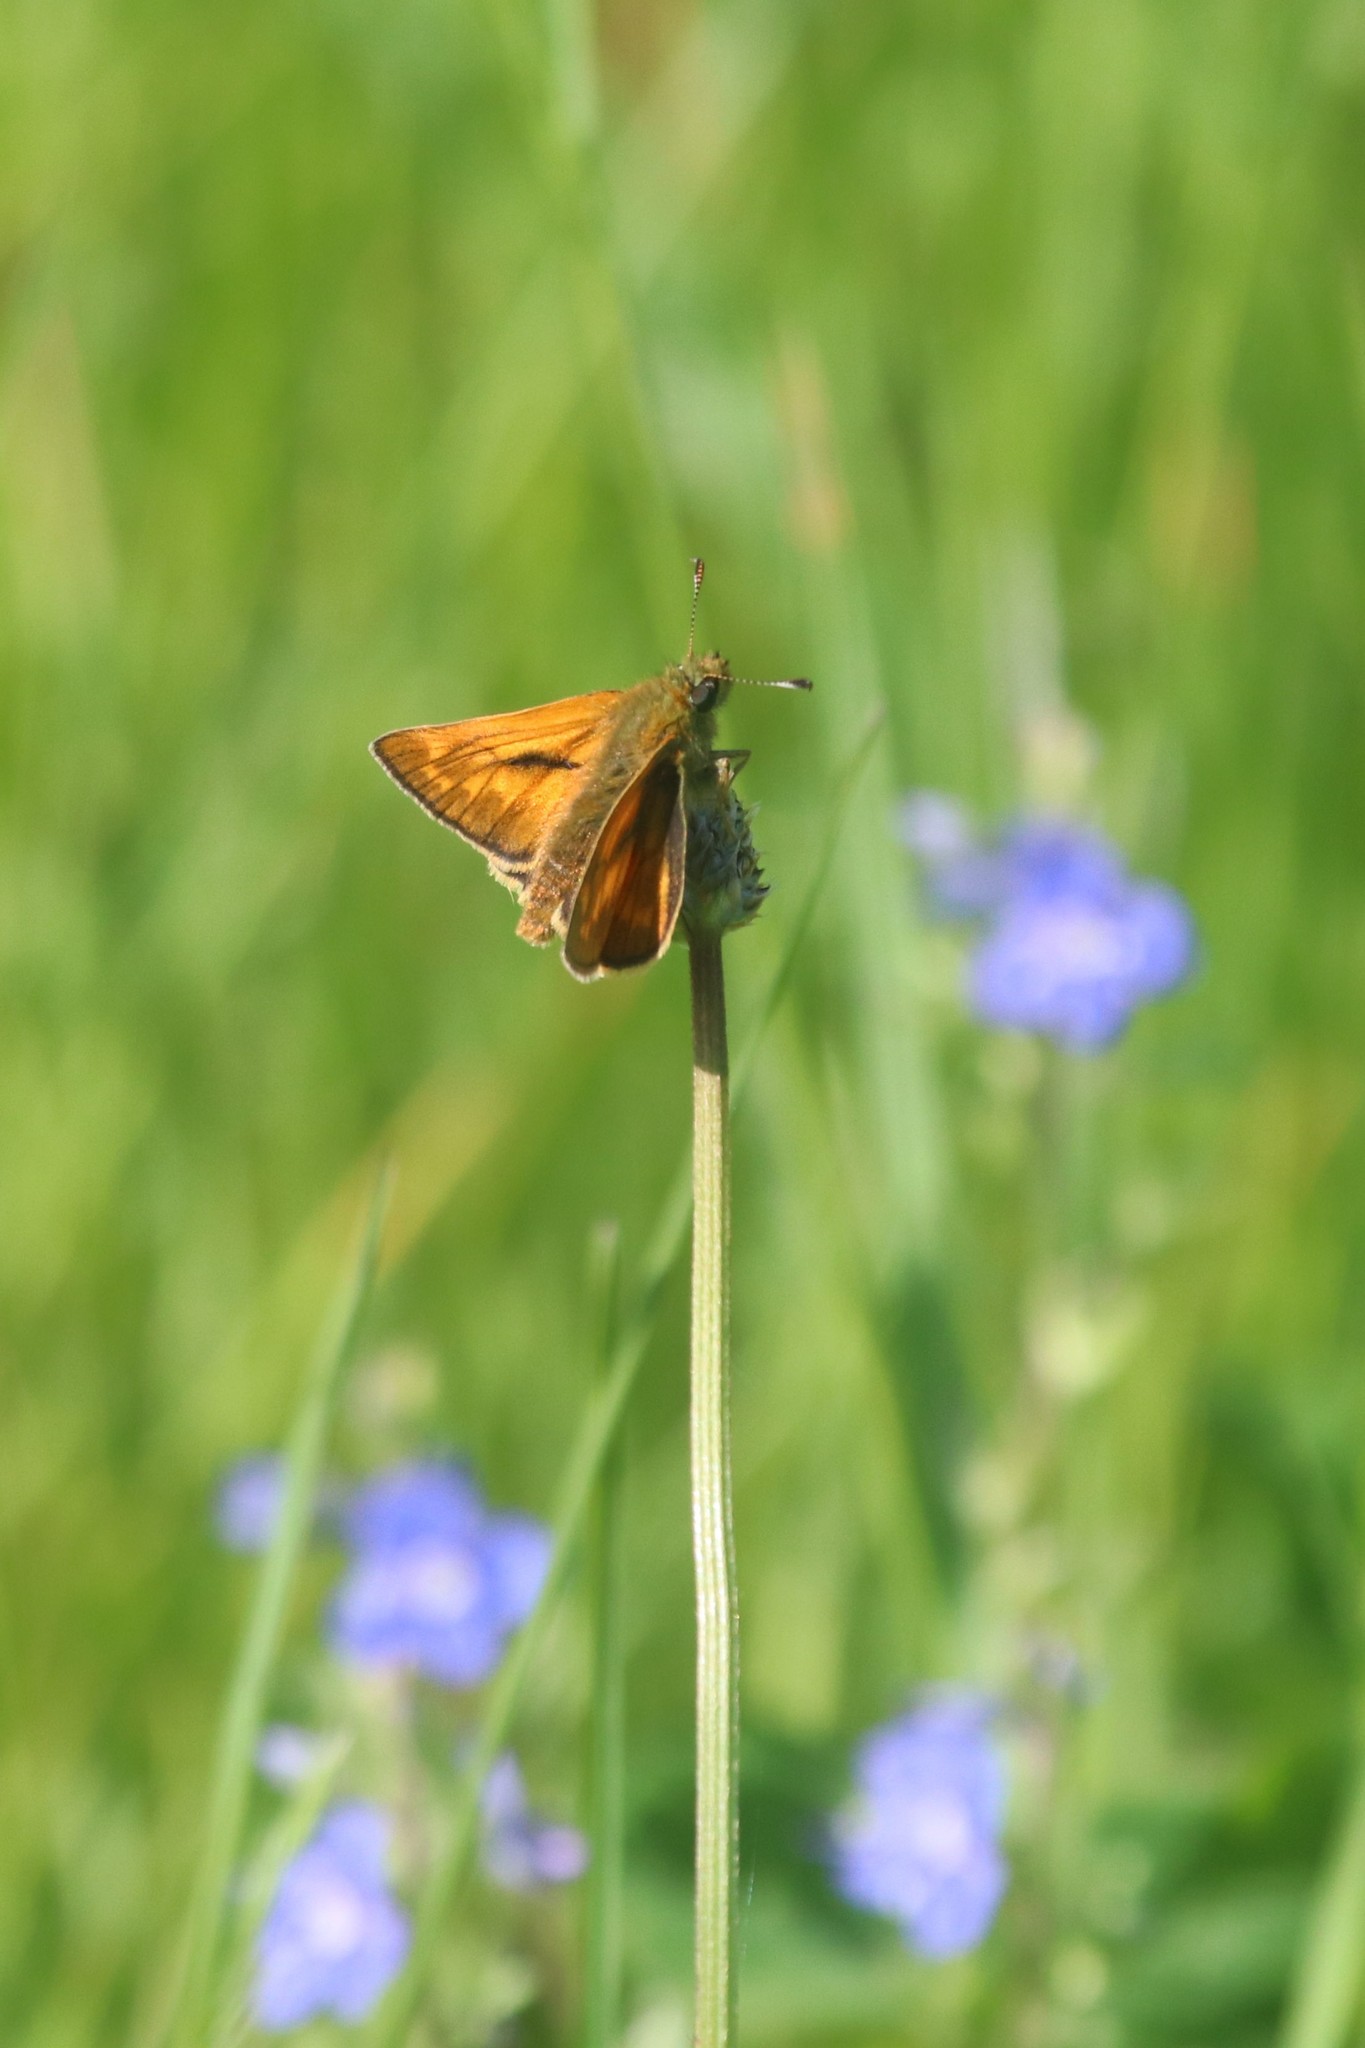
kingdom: Animalia
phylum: Arthropoda
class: Insecta
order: Lepidoptera
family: Hesperiidae
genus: Ochlodes
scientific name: Ochlodes venata
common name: Large skipper
